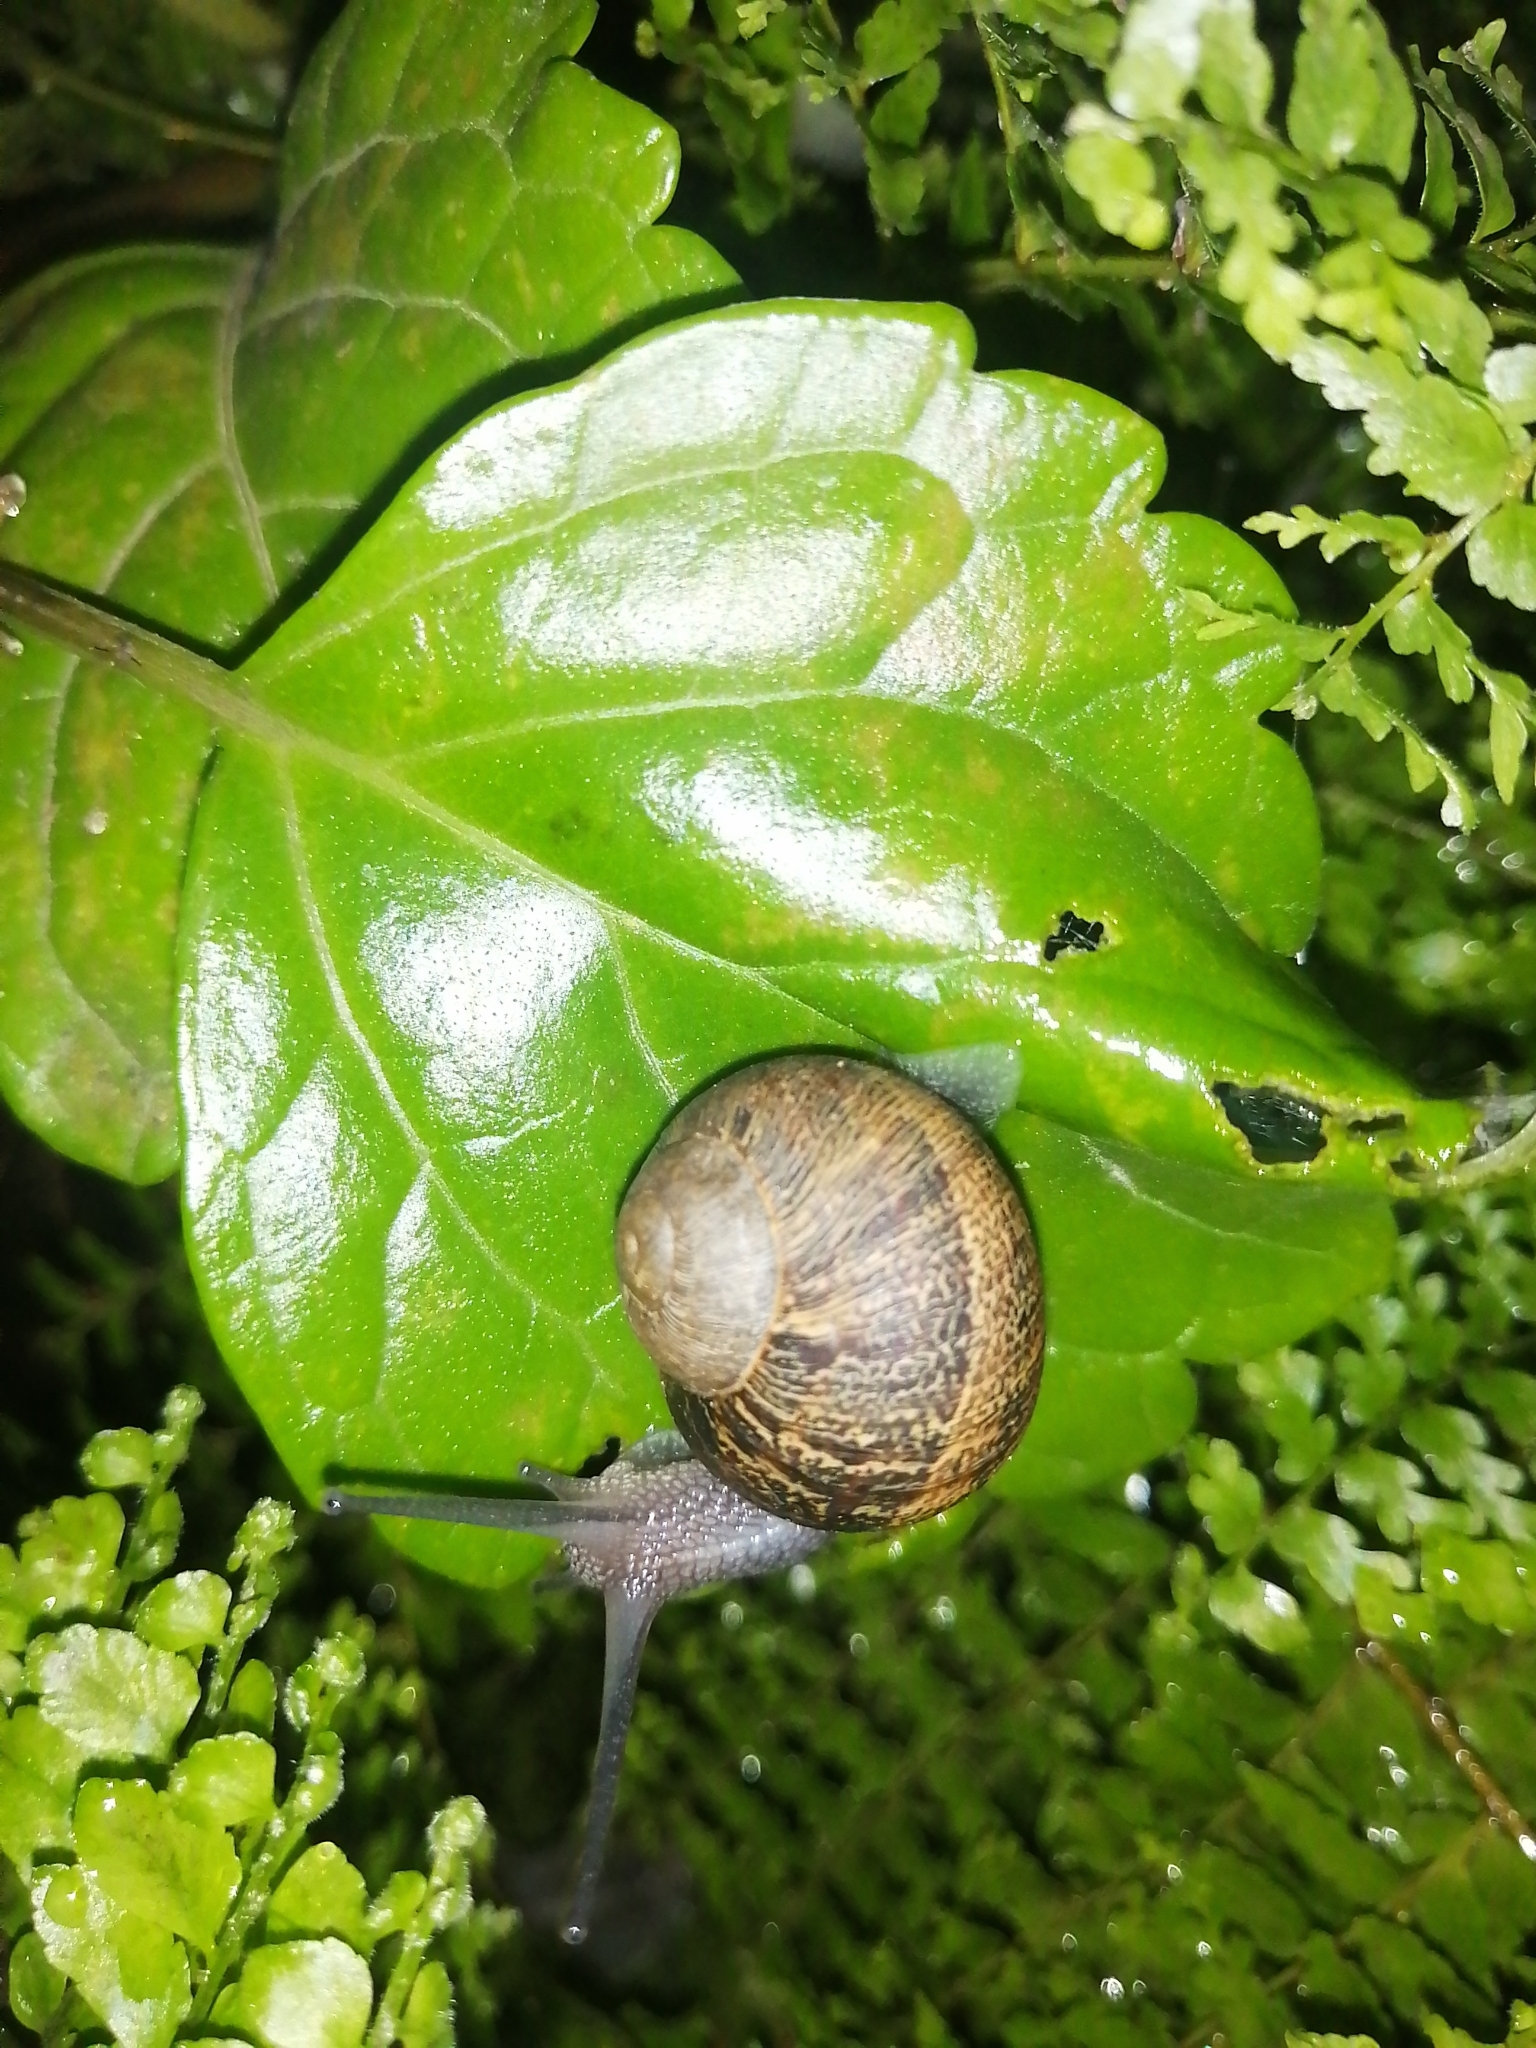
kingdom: Animalia
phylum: Mollusca
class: Gastropoda
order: Stylommatophora
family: Helicidae
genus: Cornu
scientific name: Cornu aspersum
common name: Brown garden snail
